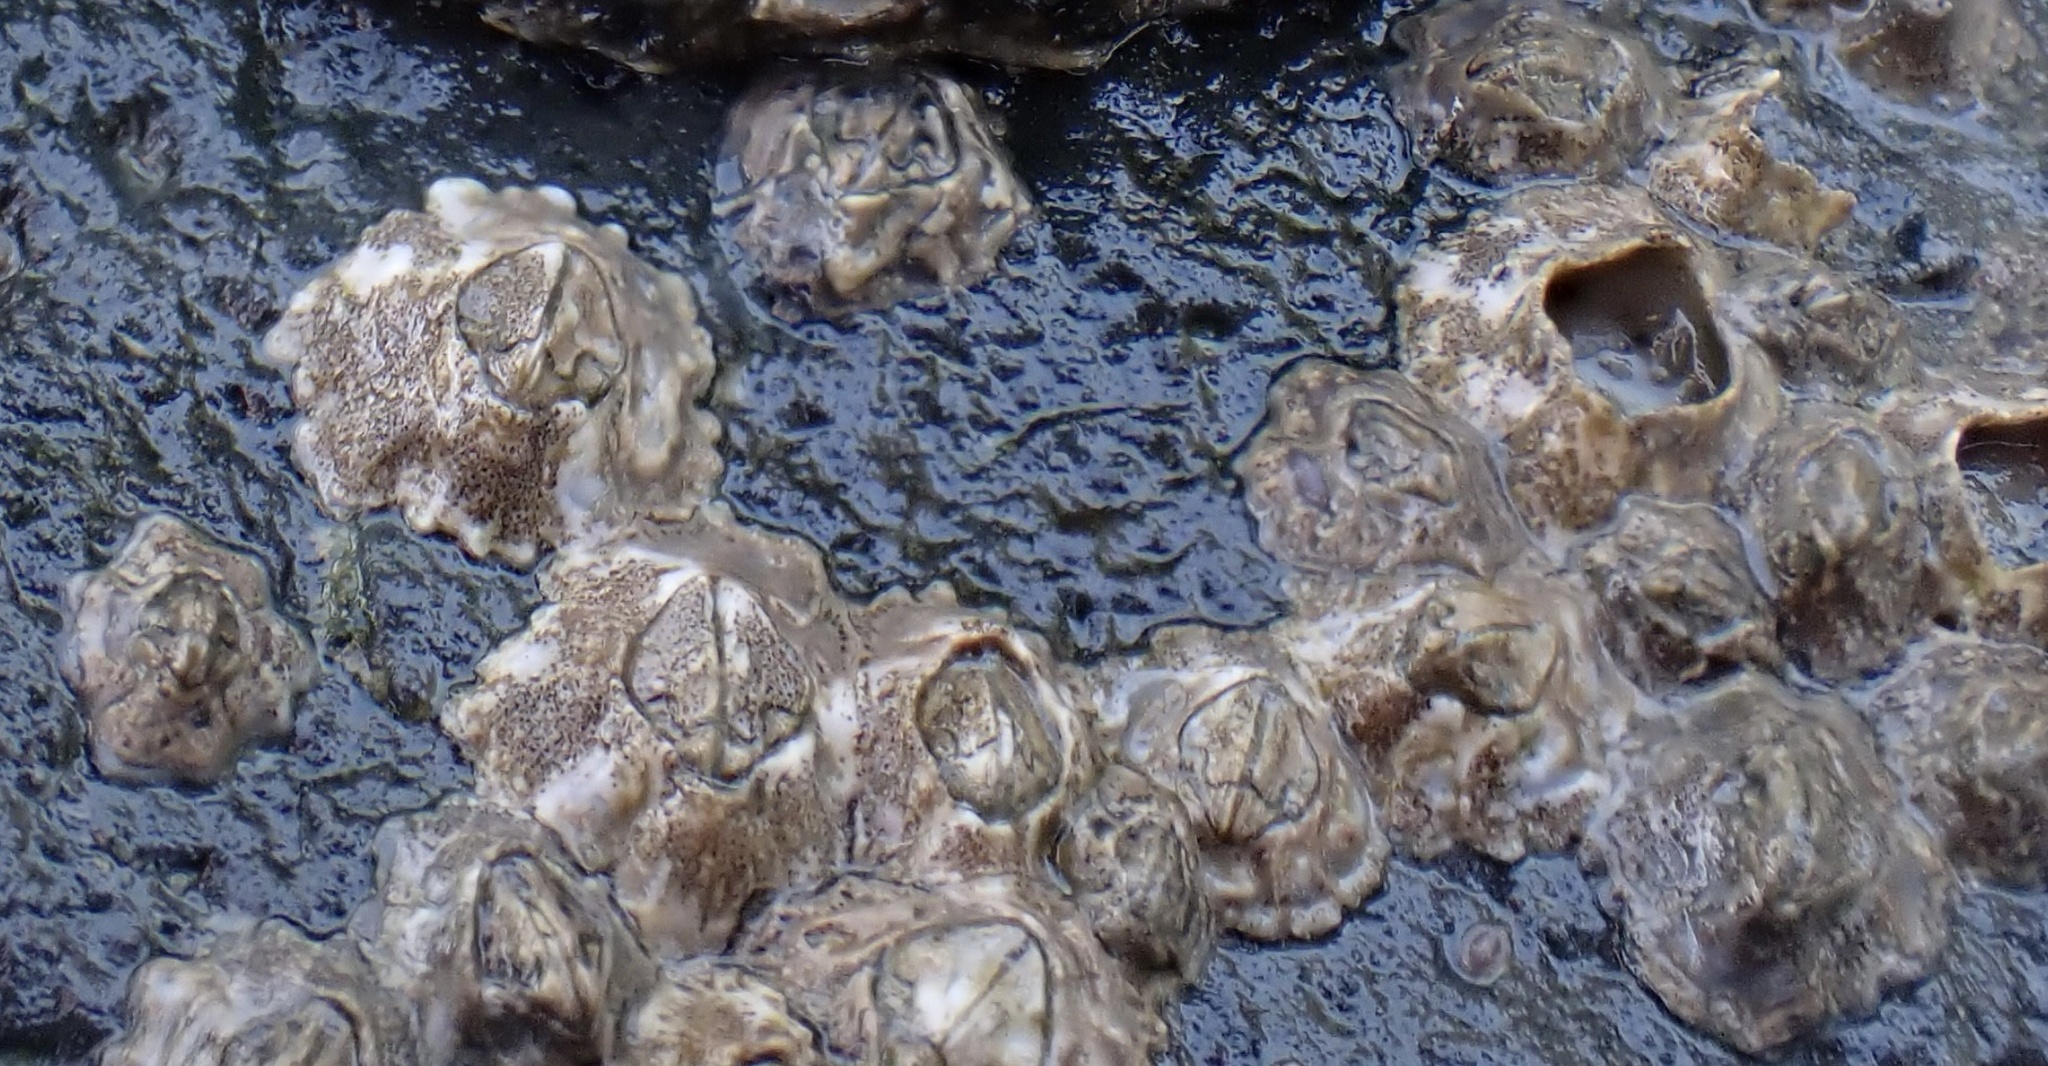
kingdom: Animalia
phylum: Arthropoda
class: Maxillopoda
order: Sessilia
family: Archaeobalanidae
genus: Semibalanus
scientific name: Semibalanus balanoides
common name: Acorn barnacle
